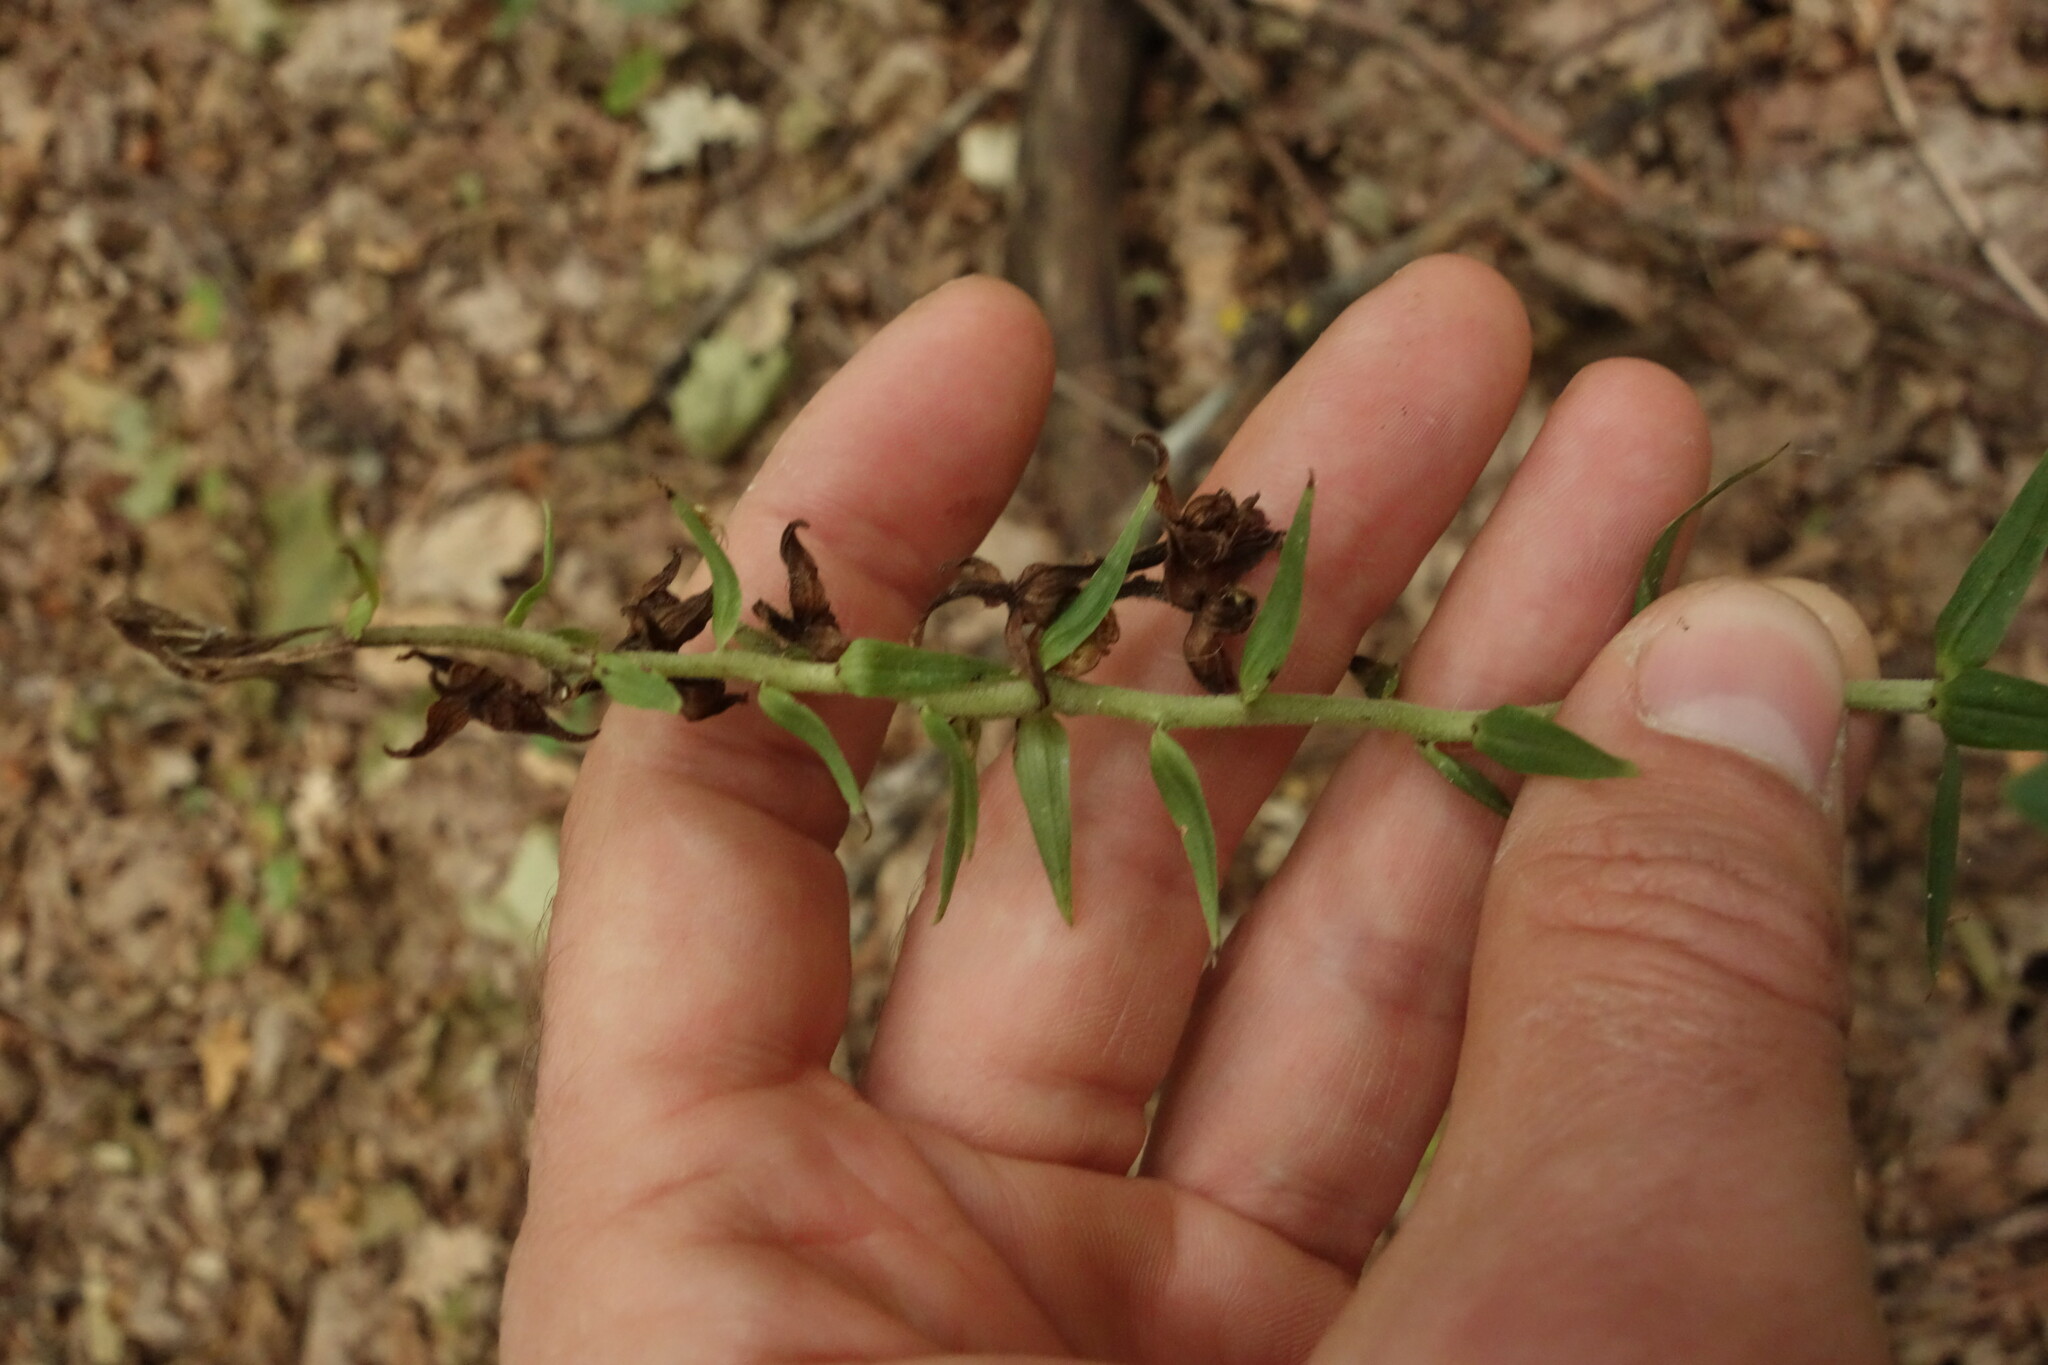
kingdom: Plantae
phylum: Tracheophyta
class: Liliopsida
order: Asparagales
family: Orchidaceae
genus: Epipactis
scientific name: Epipactis helleborine
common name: Broad-leaved helleborine
